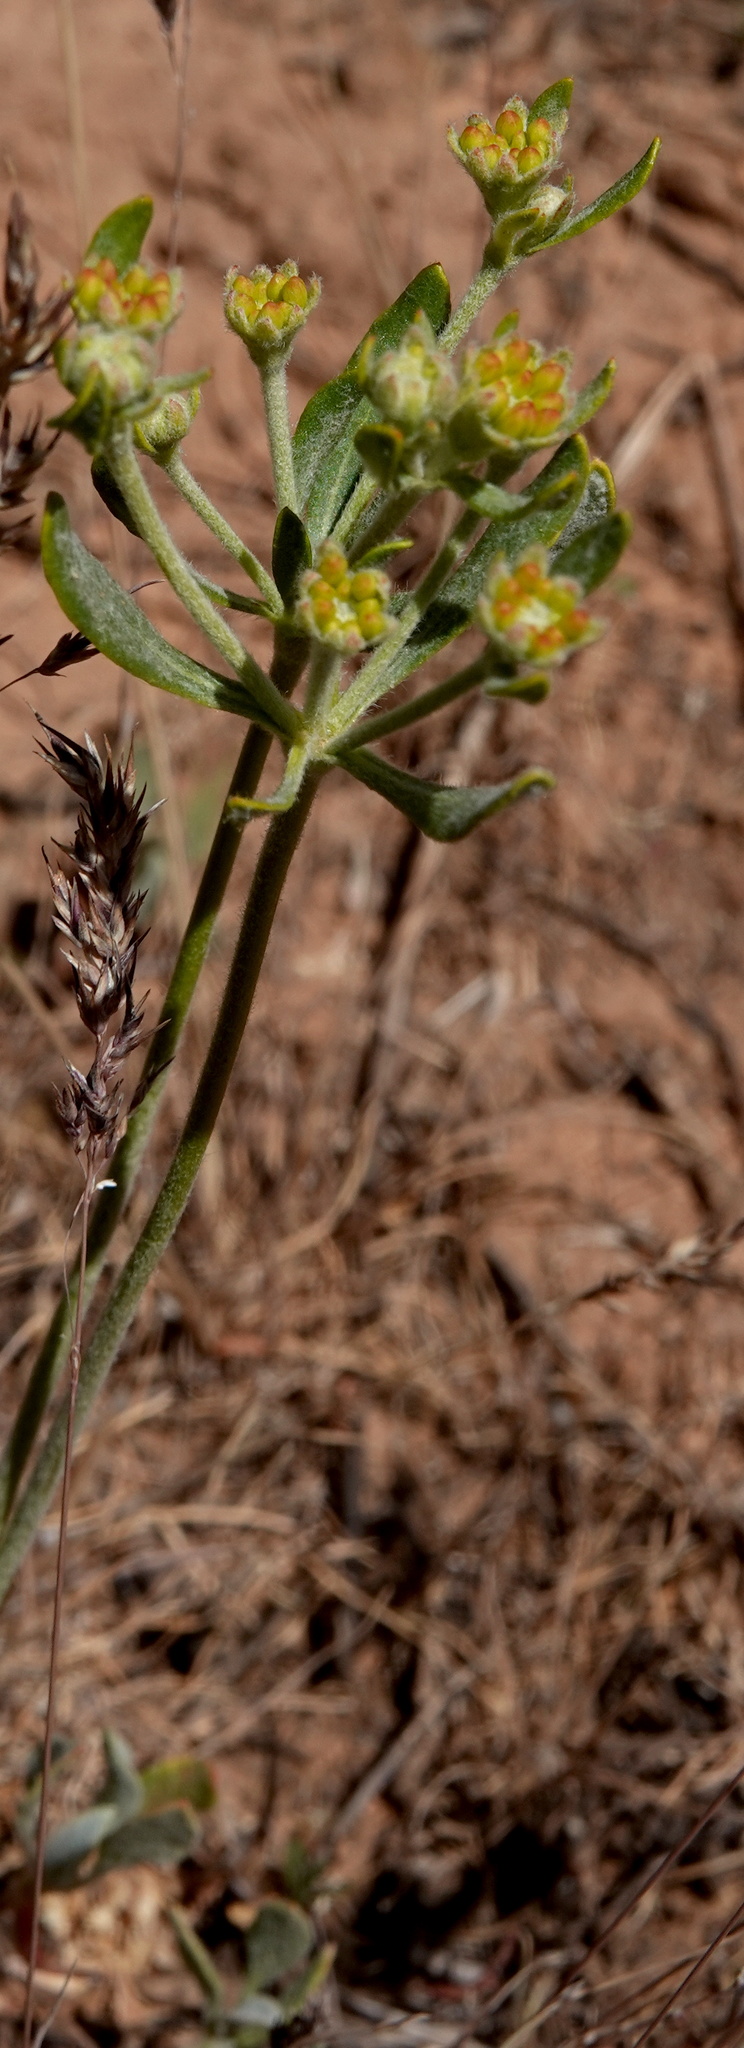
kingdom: Plantae
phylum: Tracheophyta
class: Magnoliopsida
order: Caryophyllales
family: Polygonaceae
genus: Eriogonum
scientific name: Eriogonum umbellatum
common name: Sulfur-buckwheat
